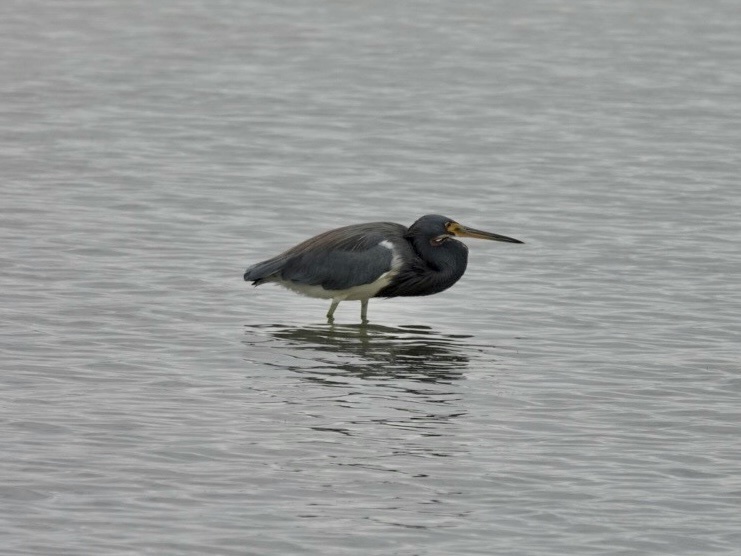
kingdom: Animalia
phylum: Chordata
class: Aves
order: Pelecaniformes
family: Ardeidae
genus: Egretta
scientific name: Egretta tricolor
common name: Tricolored heron
